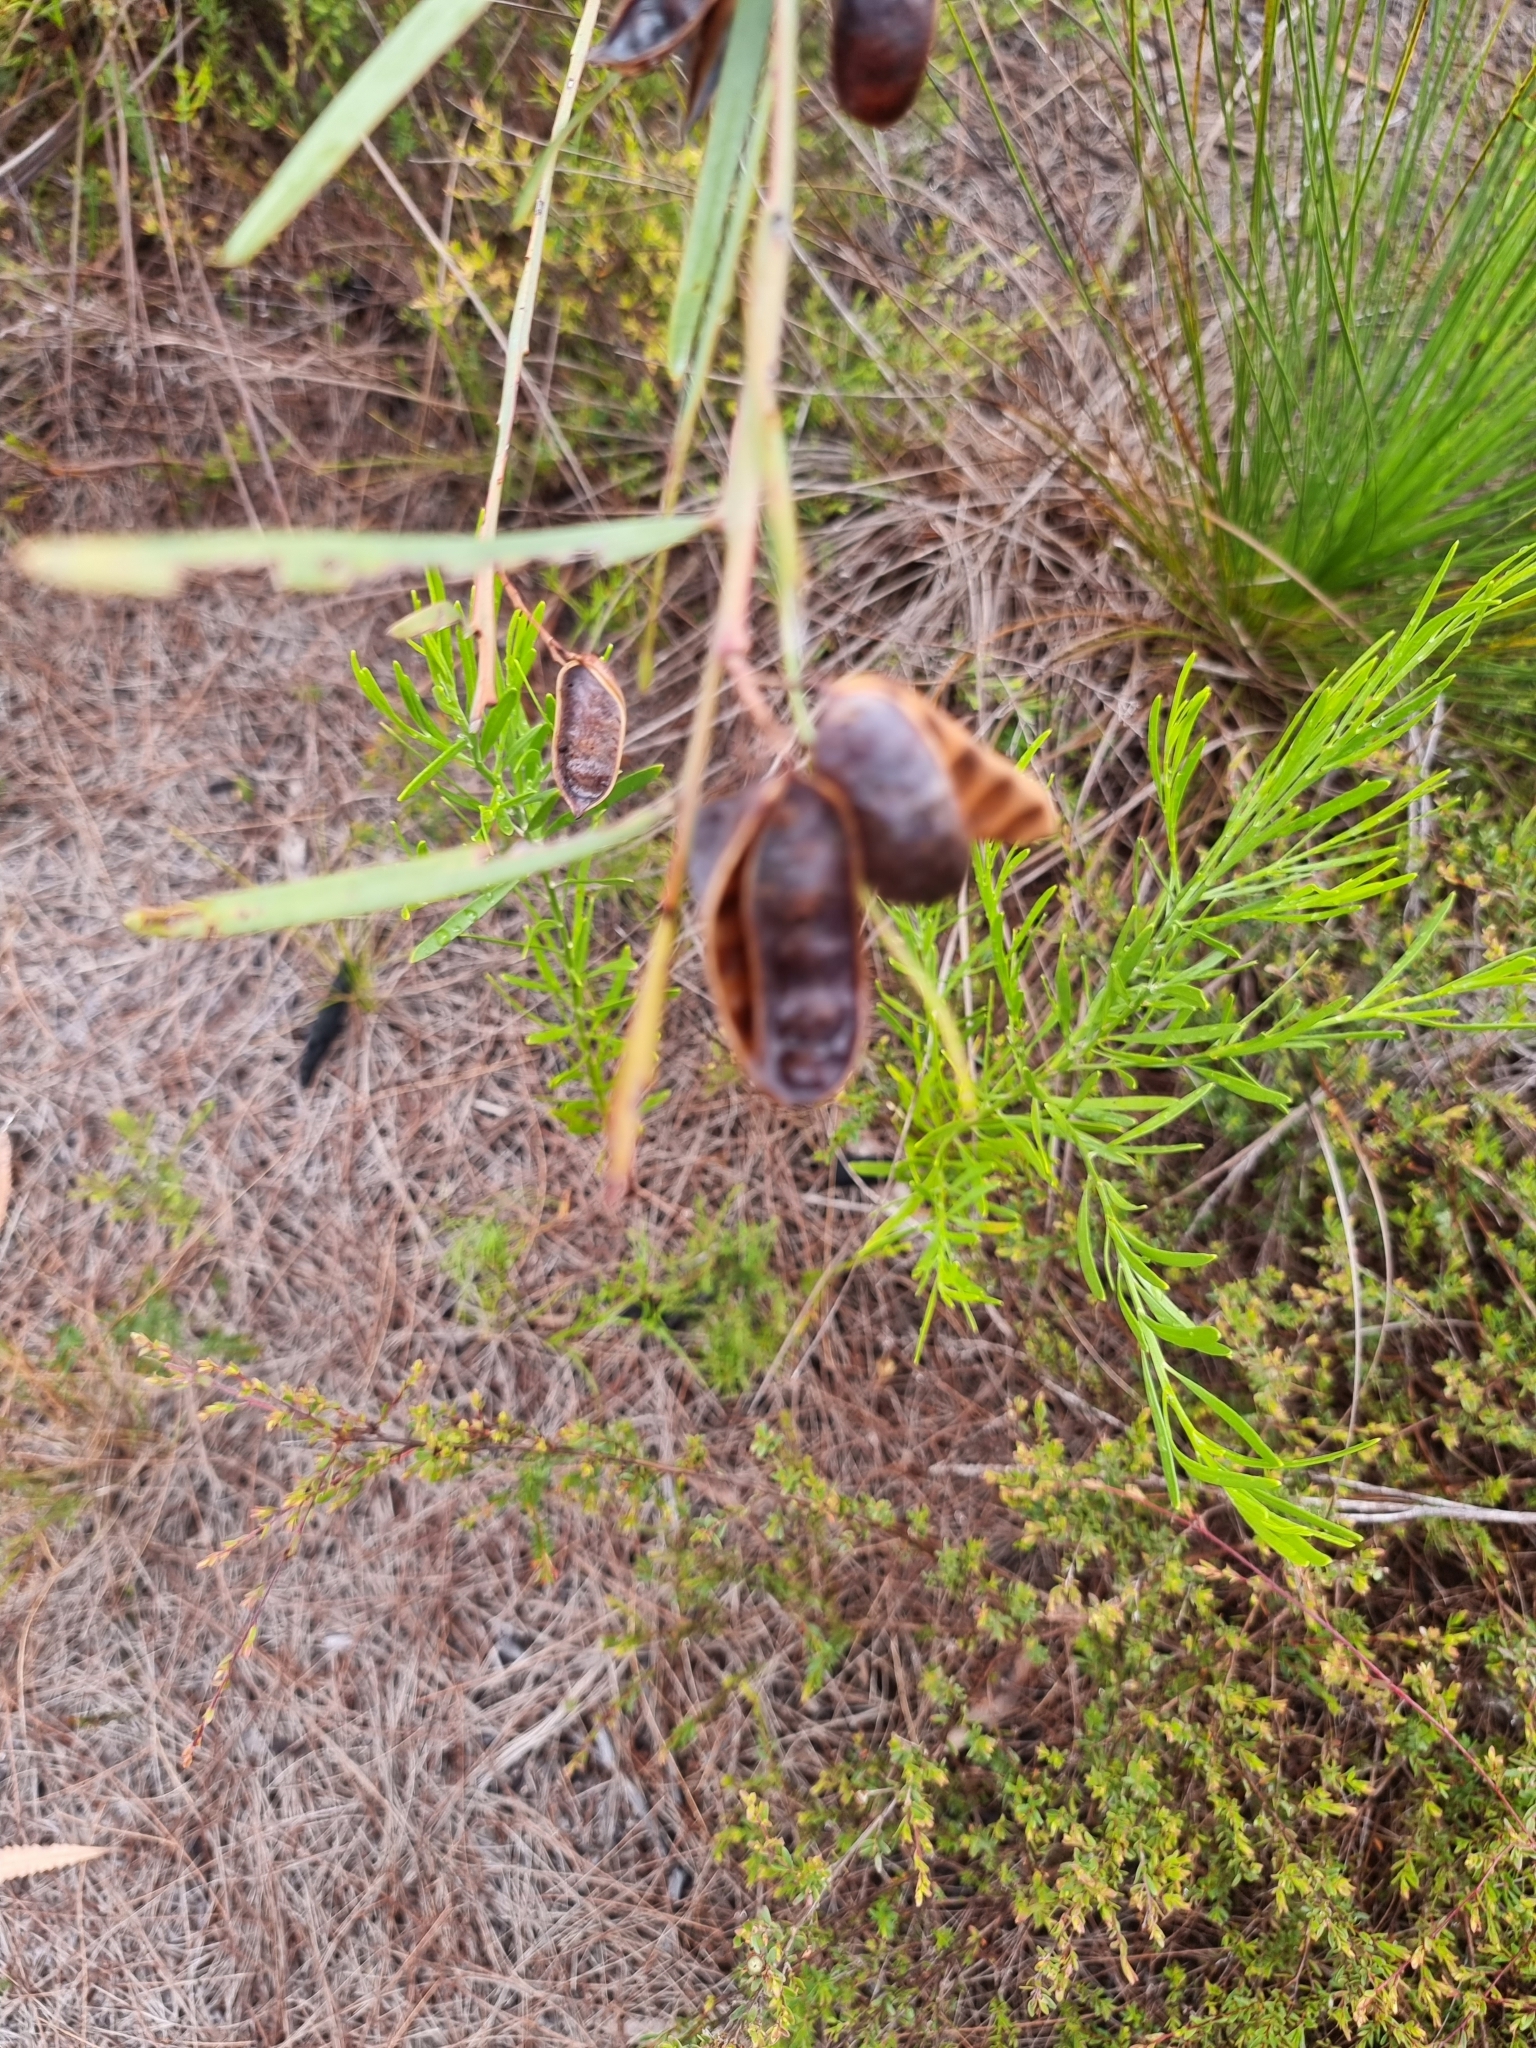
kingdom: Plantae
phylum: Tracheophyta
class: Magnoliopsida
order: Fabales
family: Fabaceae
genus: Acacia
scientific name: Acacia suaveolens
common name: Sweet acacia
